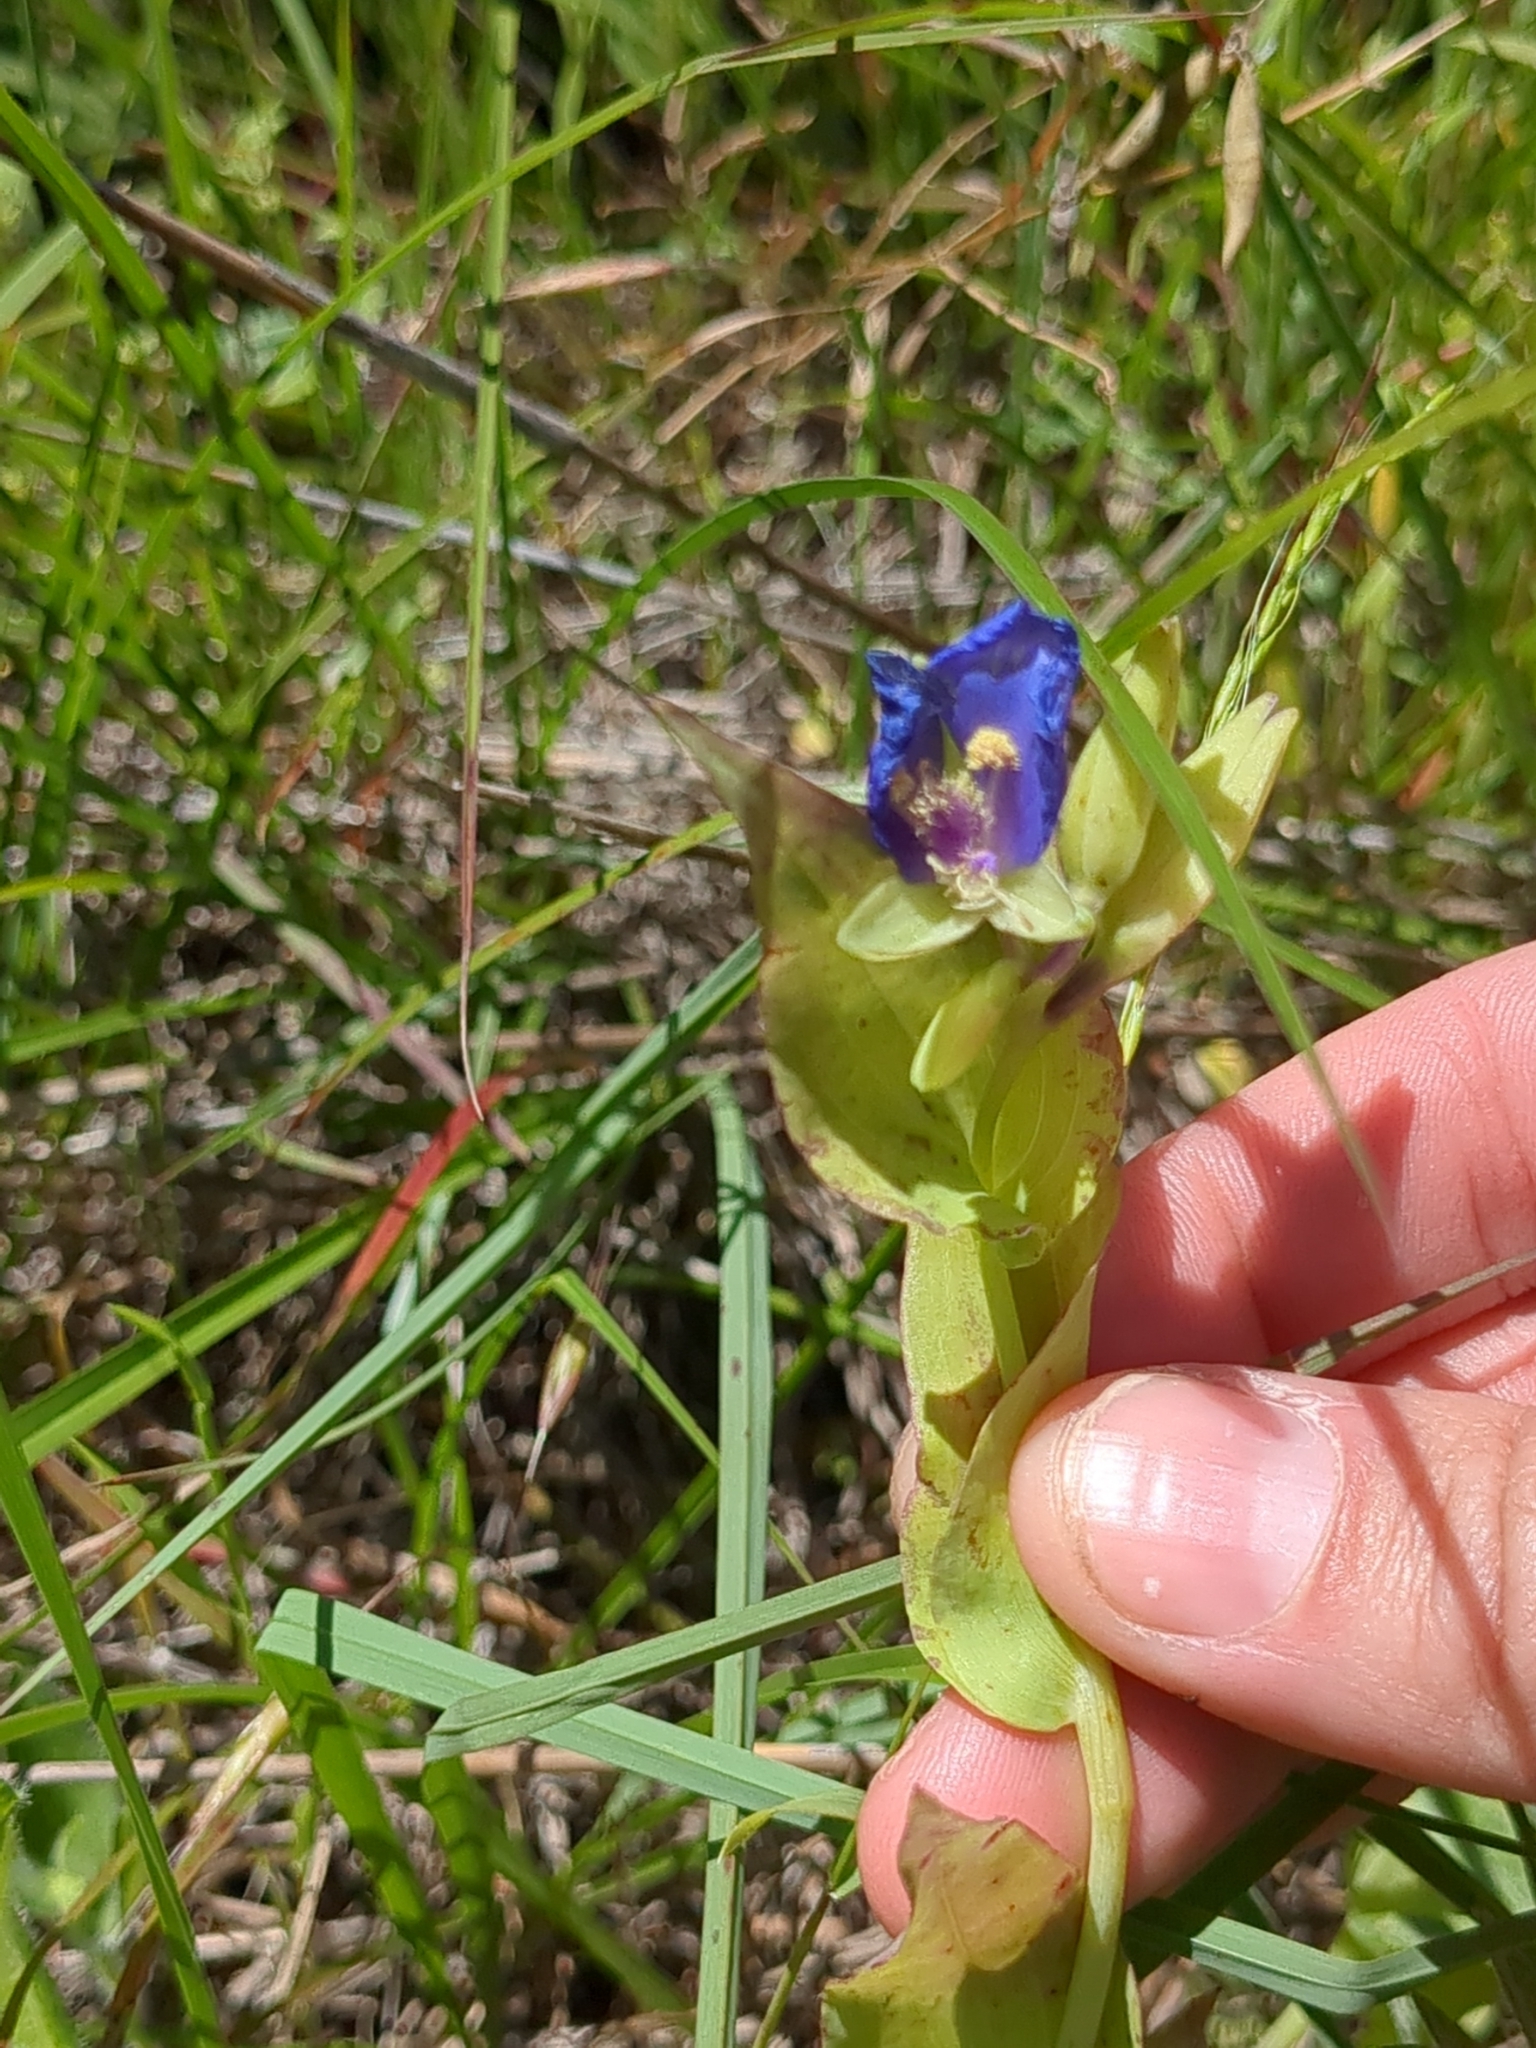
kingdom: Plantae
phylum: Tracheophyta
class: Liliopsida
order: Commelinales
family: Commelinaceae
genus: Tinantia
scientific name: Tinantia anomala
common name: False dayflower
